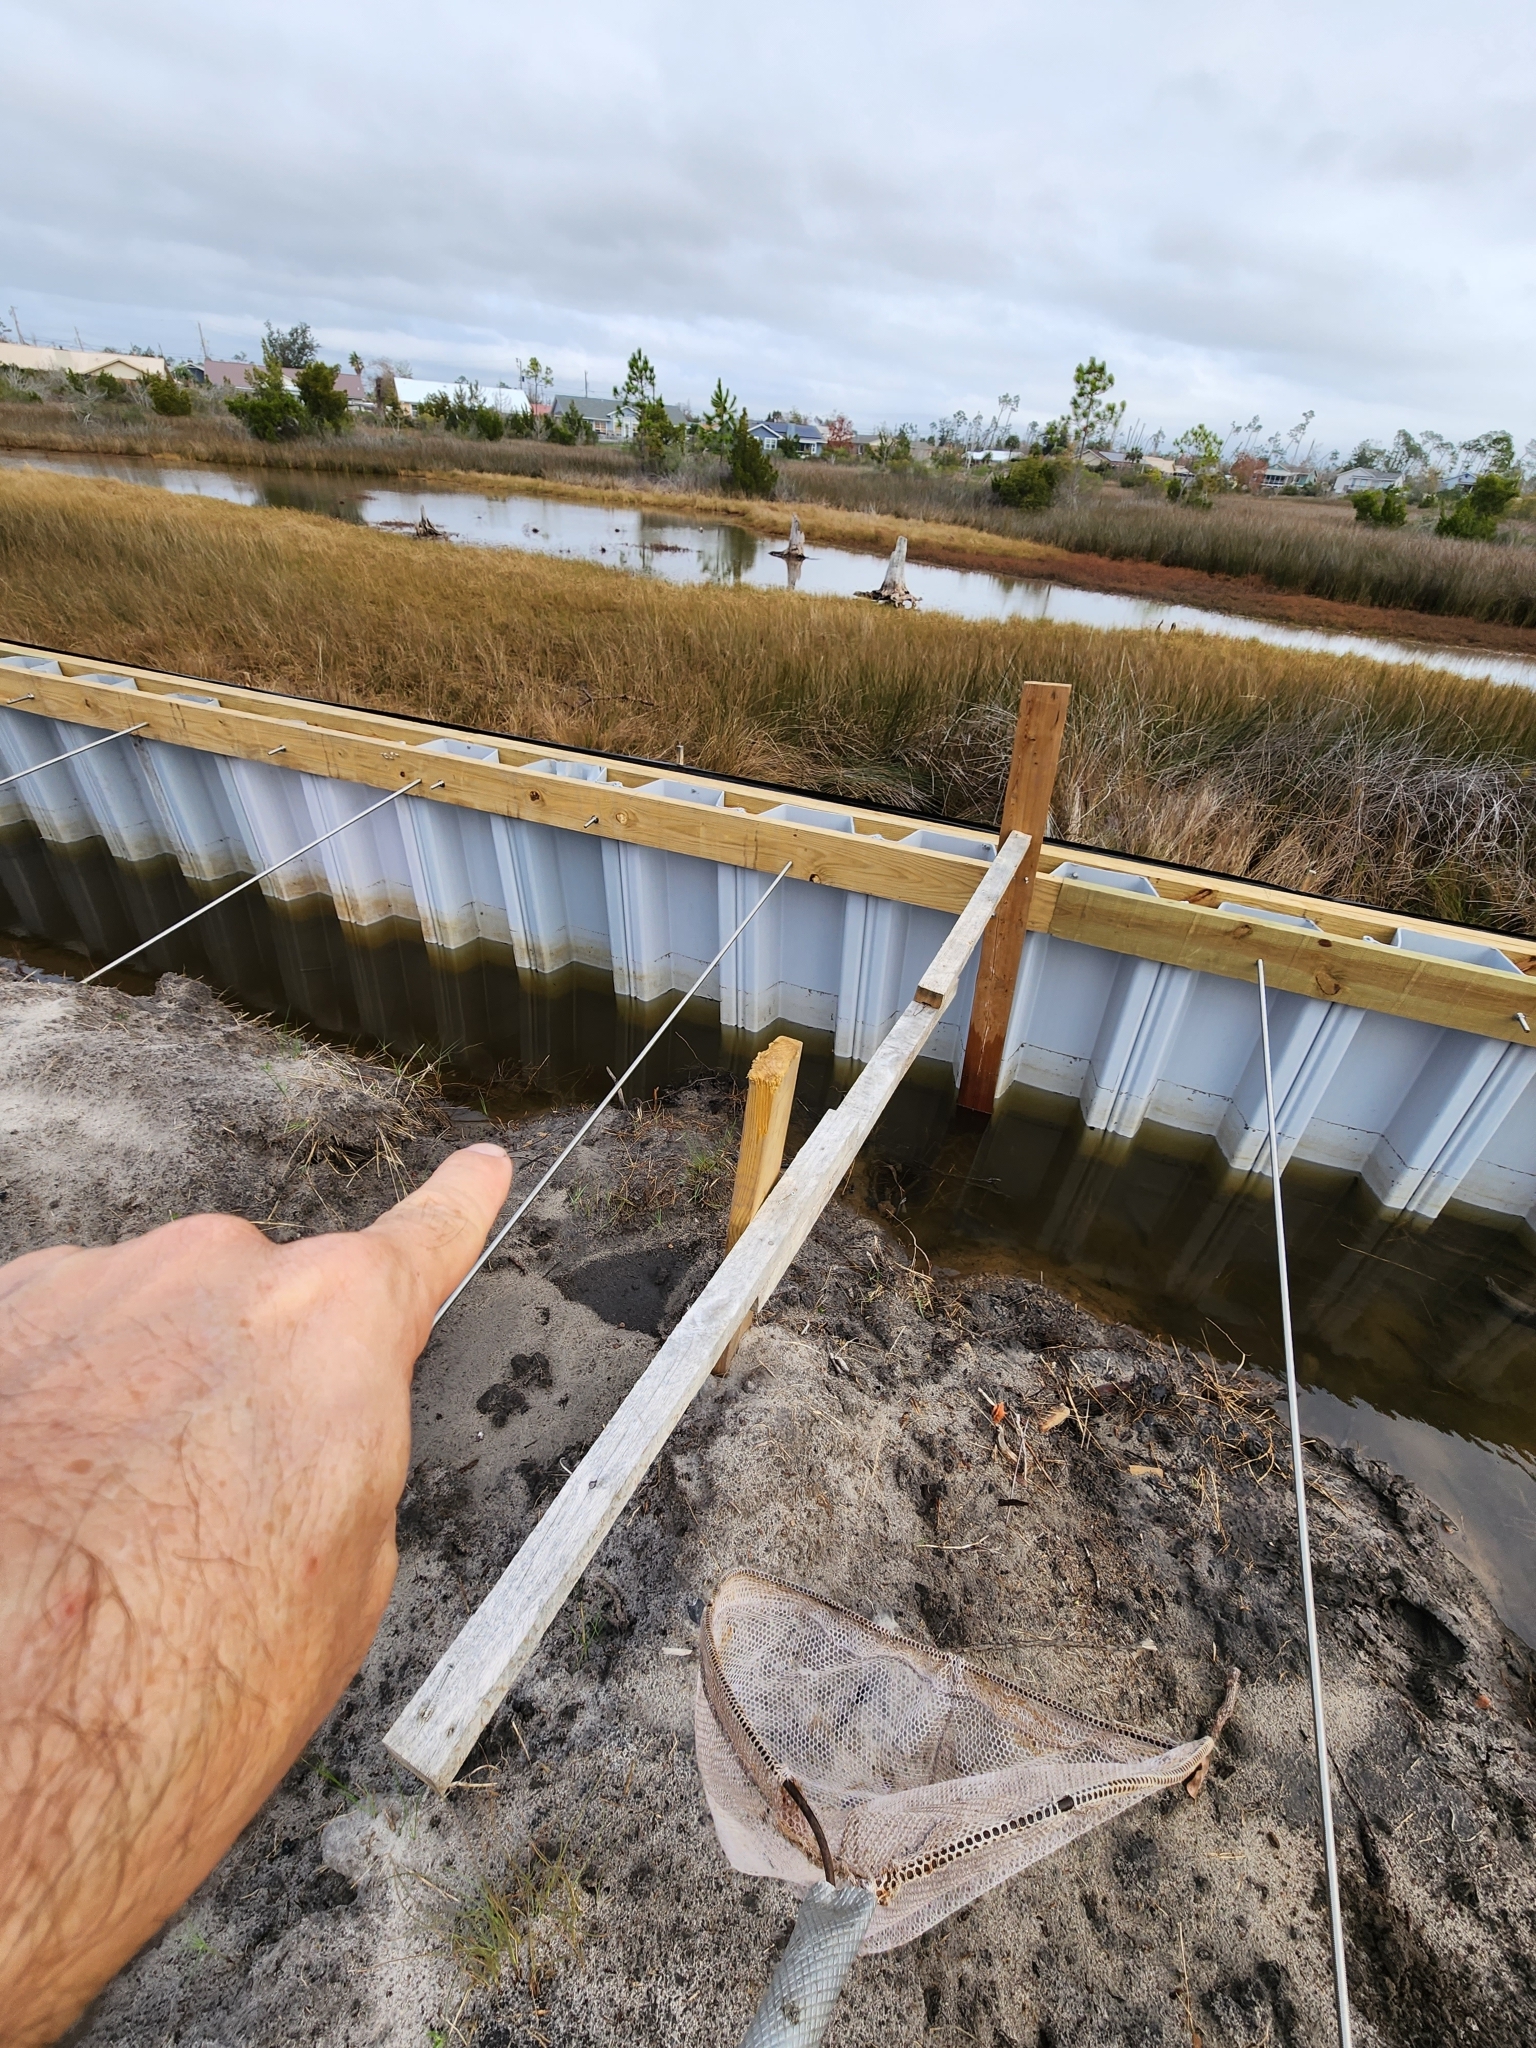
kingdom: Animalia
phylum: Chordata
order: Cyprinodontiformes
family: Poeciliidae
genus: Poecilia
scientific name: Poecilia latipinna
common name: Sailfin molly
